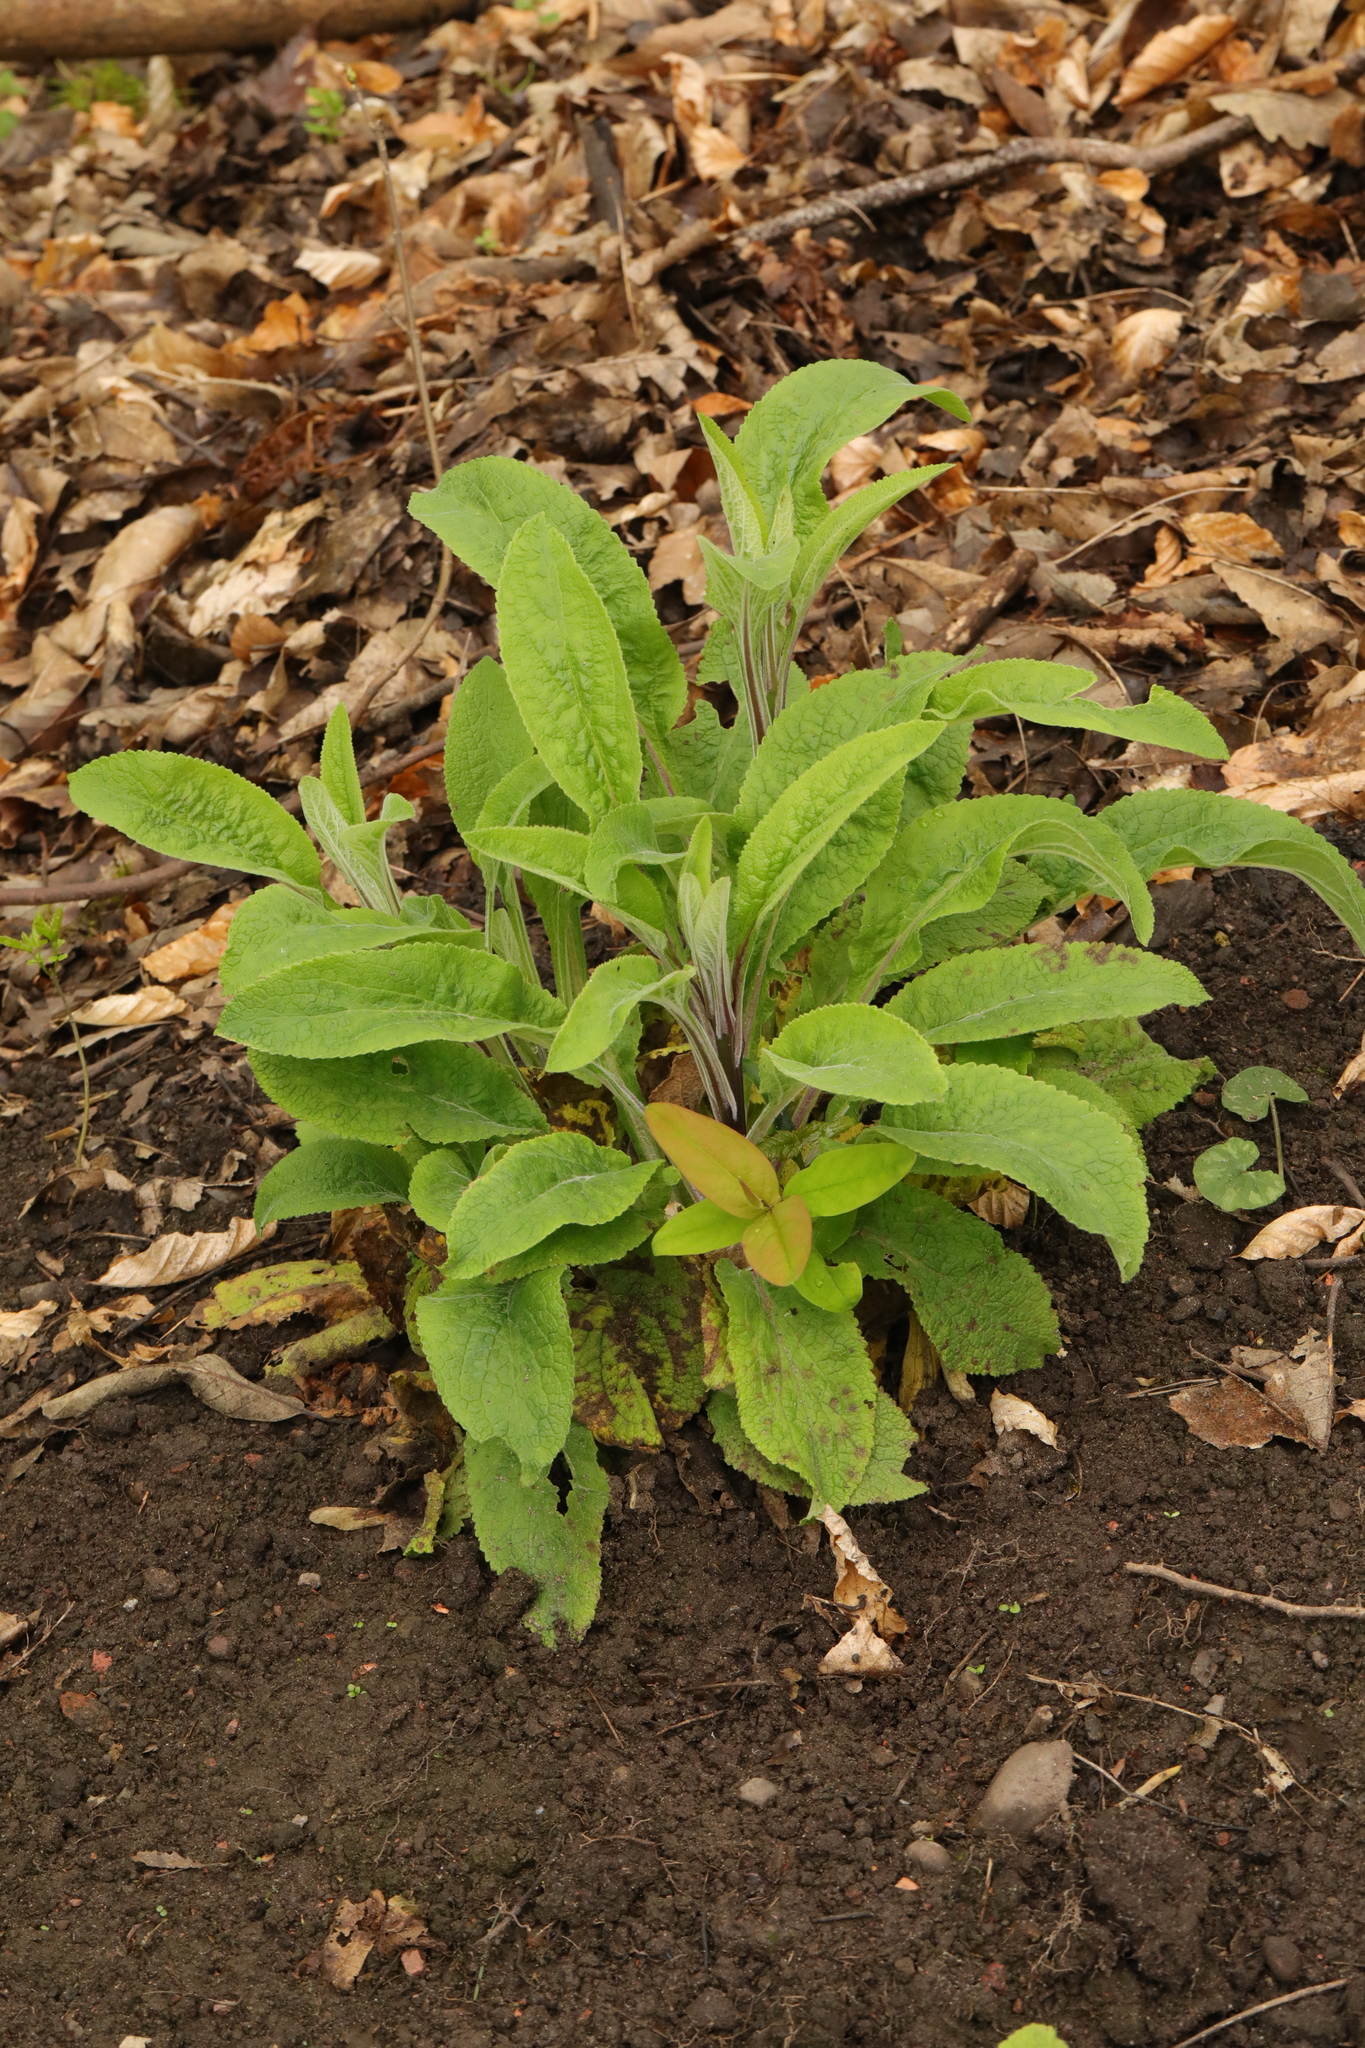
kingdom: Plantae
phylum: Tracheophyta
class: Magnoliopsida
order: Lamiales
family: Plantaginaceae
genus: Digitalis
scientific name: Digitalis purpurea
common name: Foxglove
